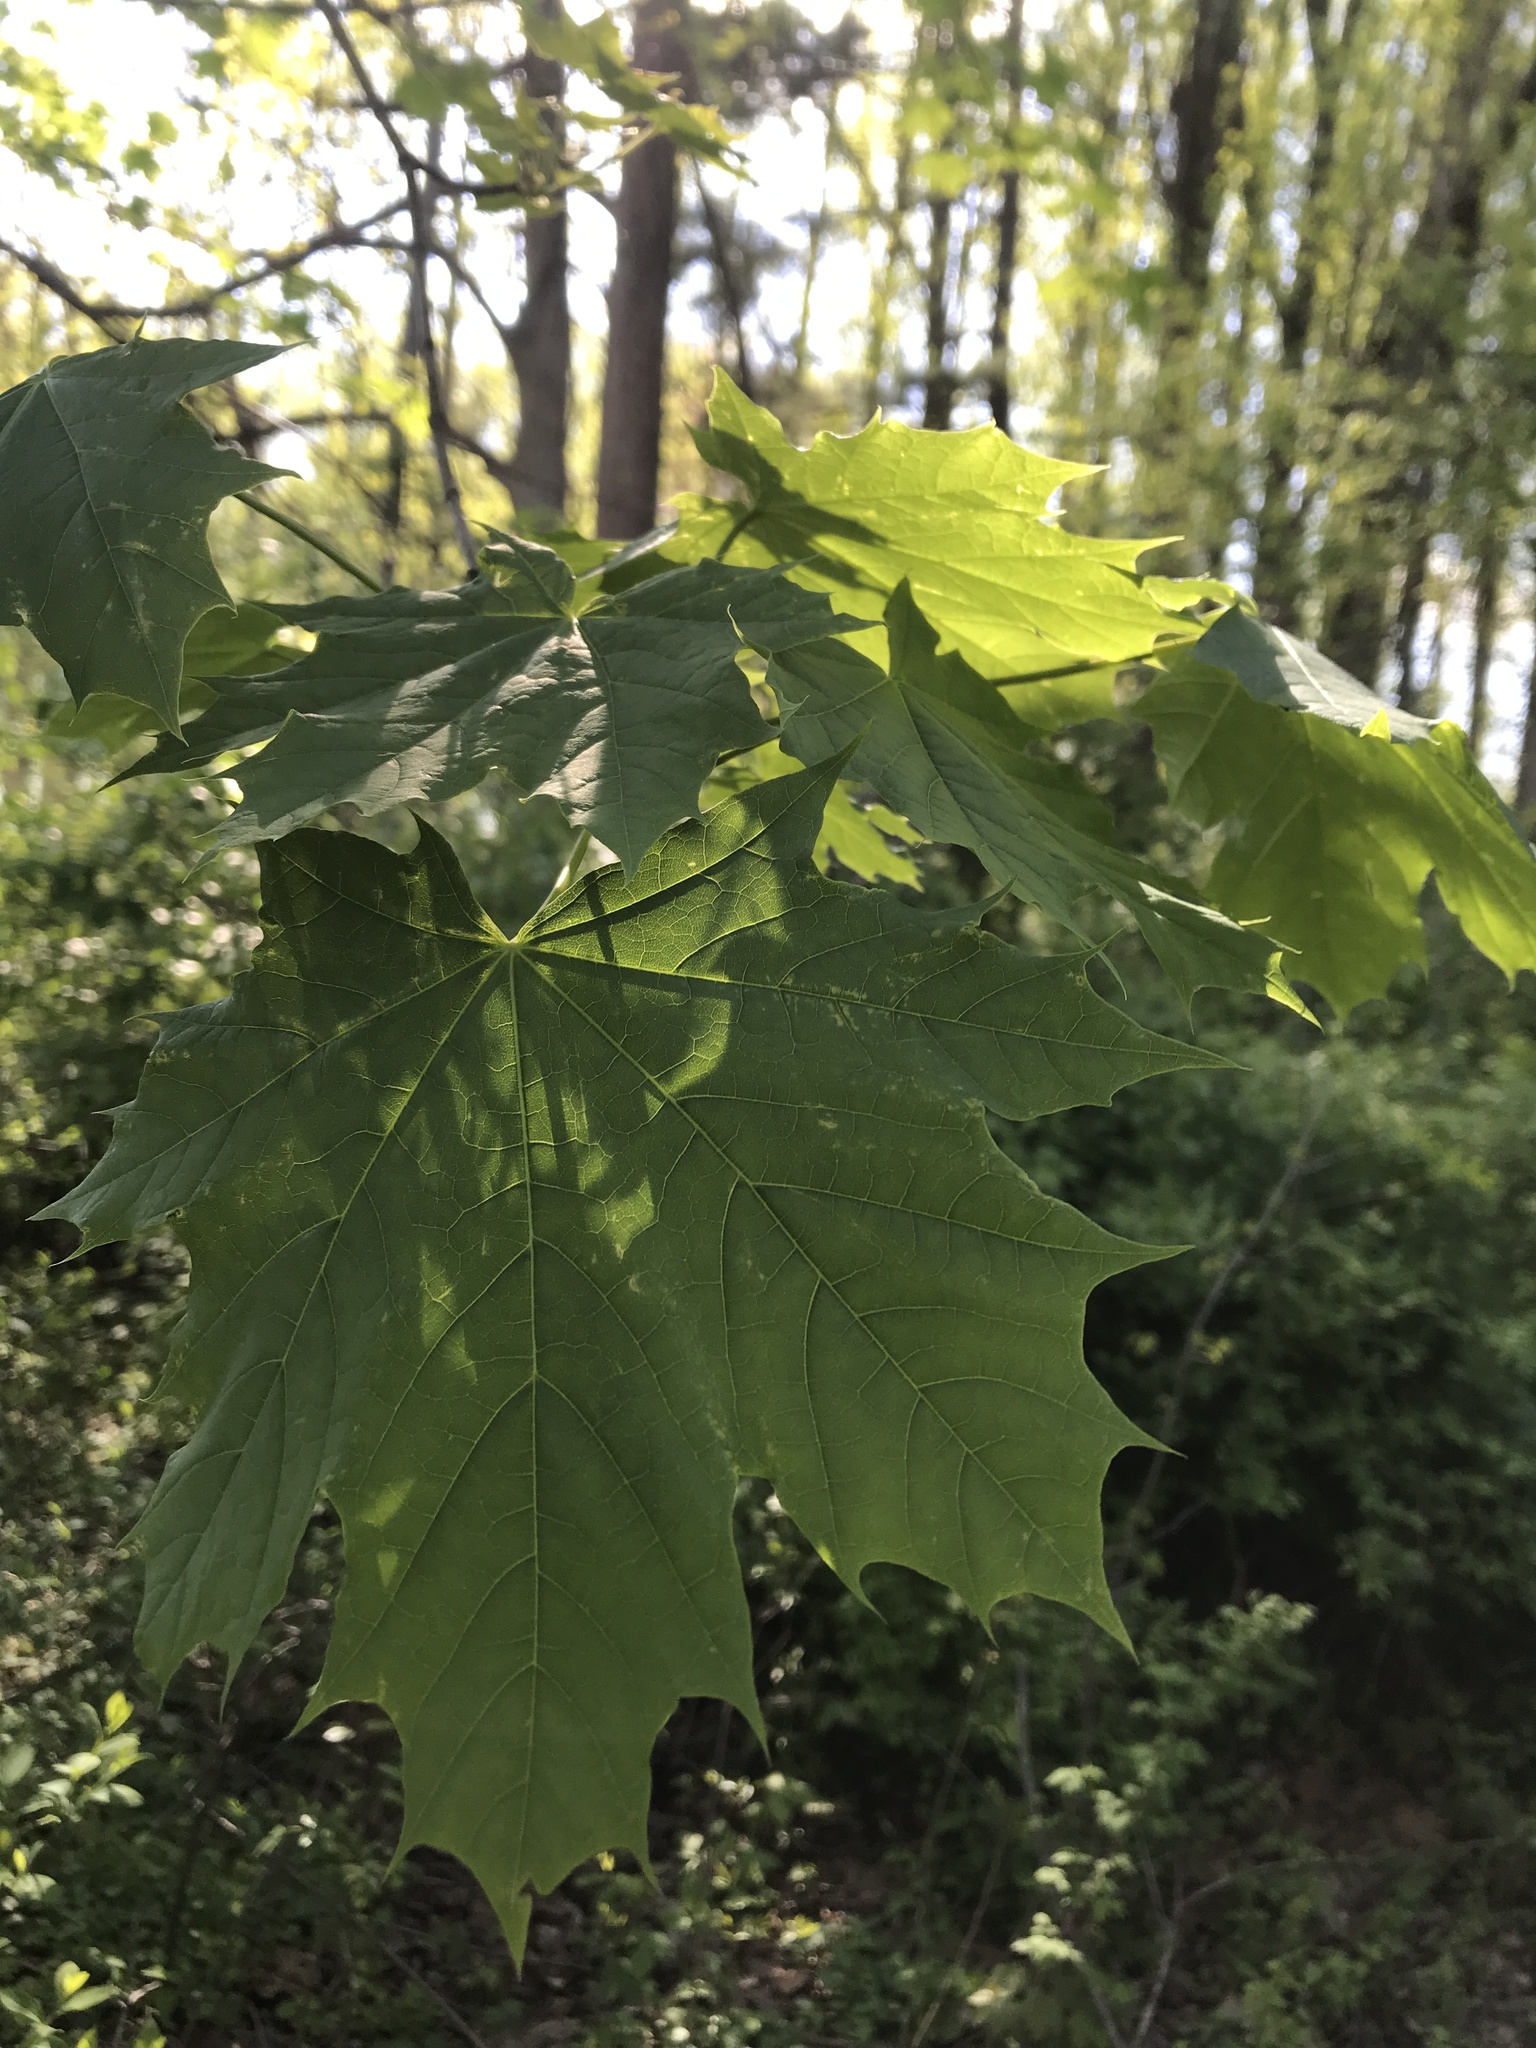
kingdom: Plantae
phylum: Tracheophyta
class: Magnoliopsida
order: Sapindales
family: Sapindaceae
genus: Acer
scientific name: Acer platanoides
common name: Norway maple
